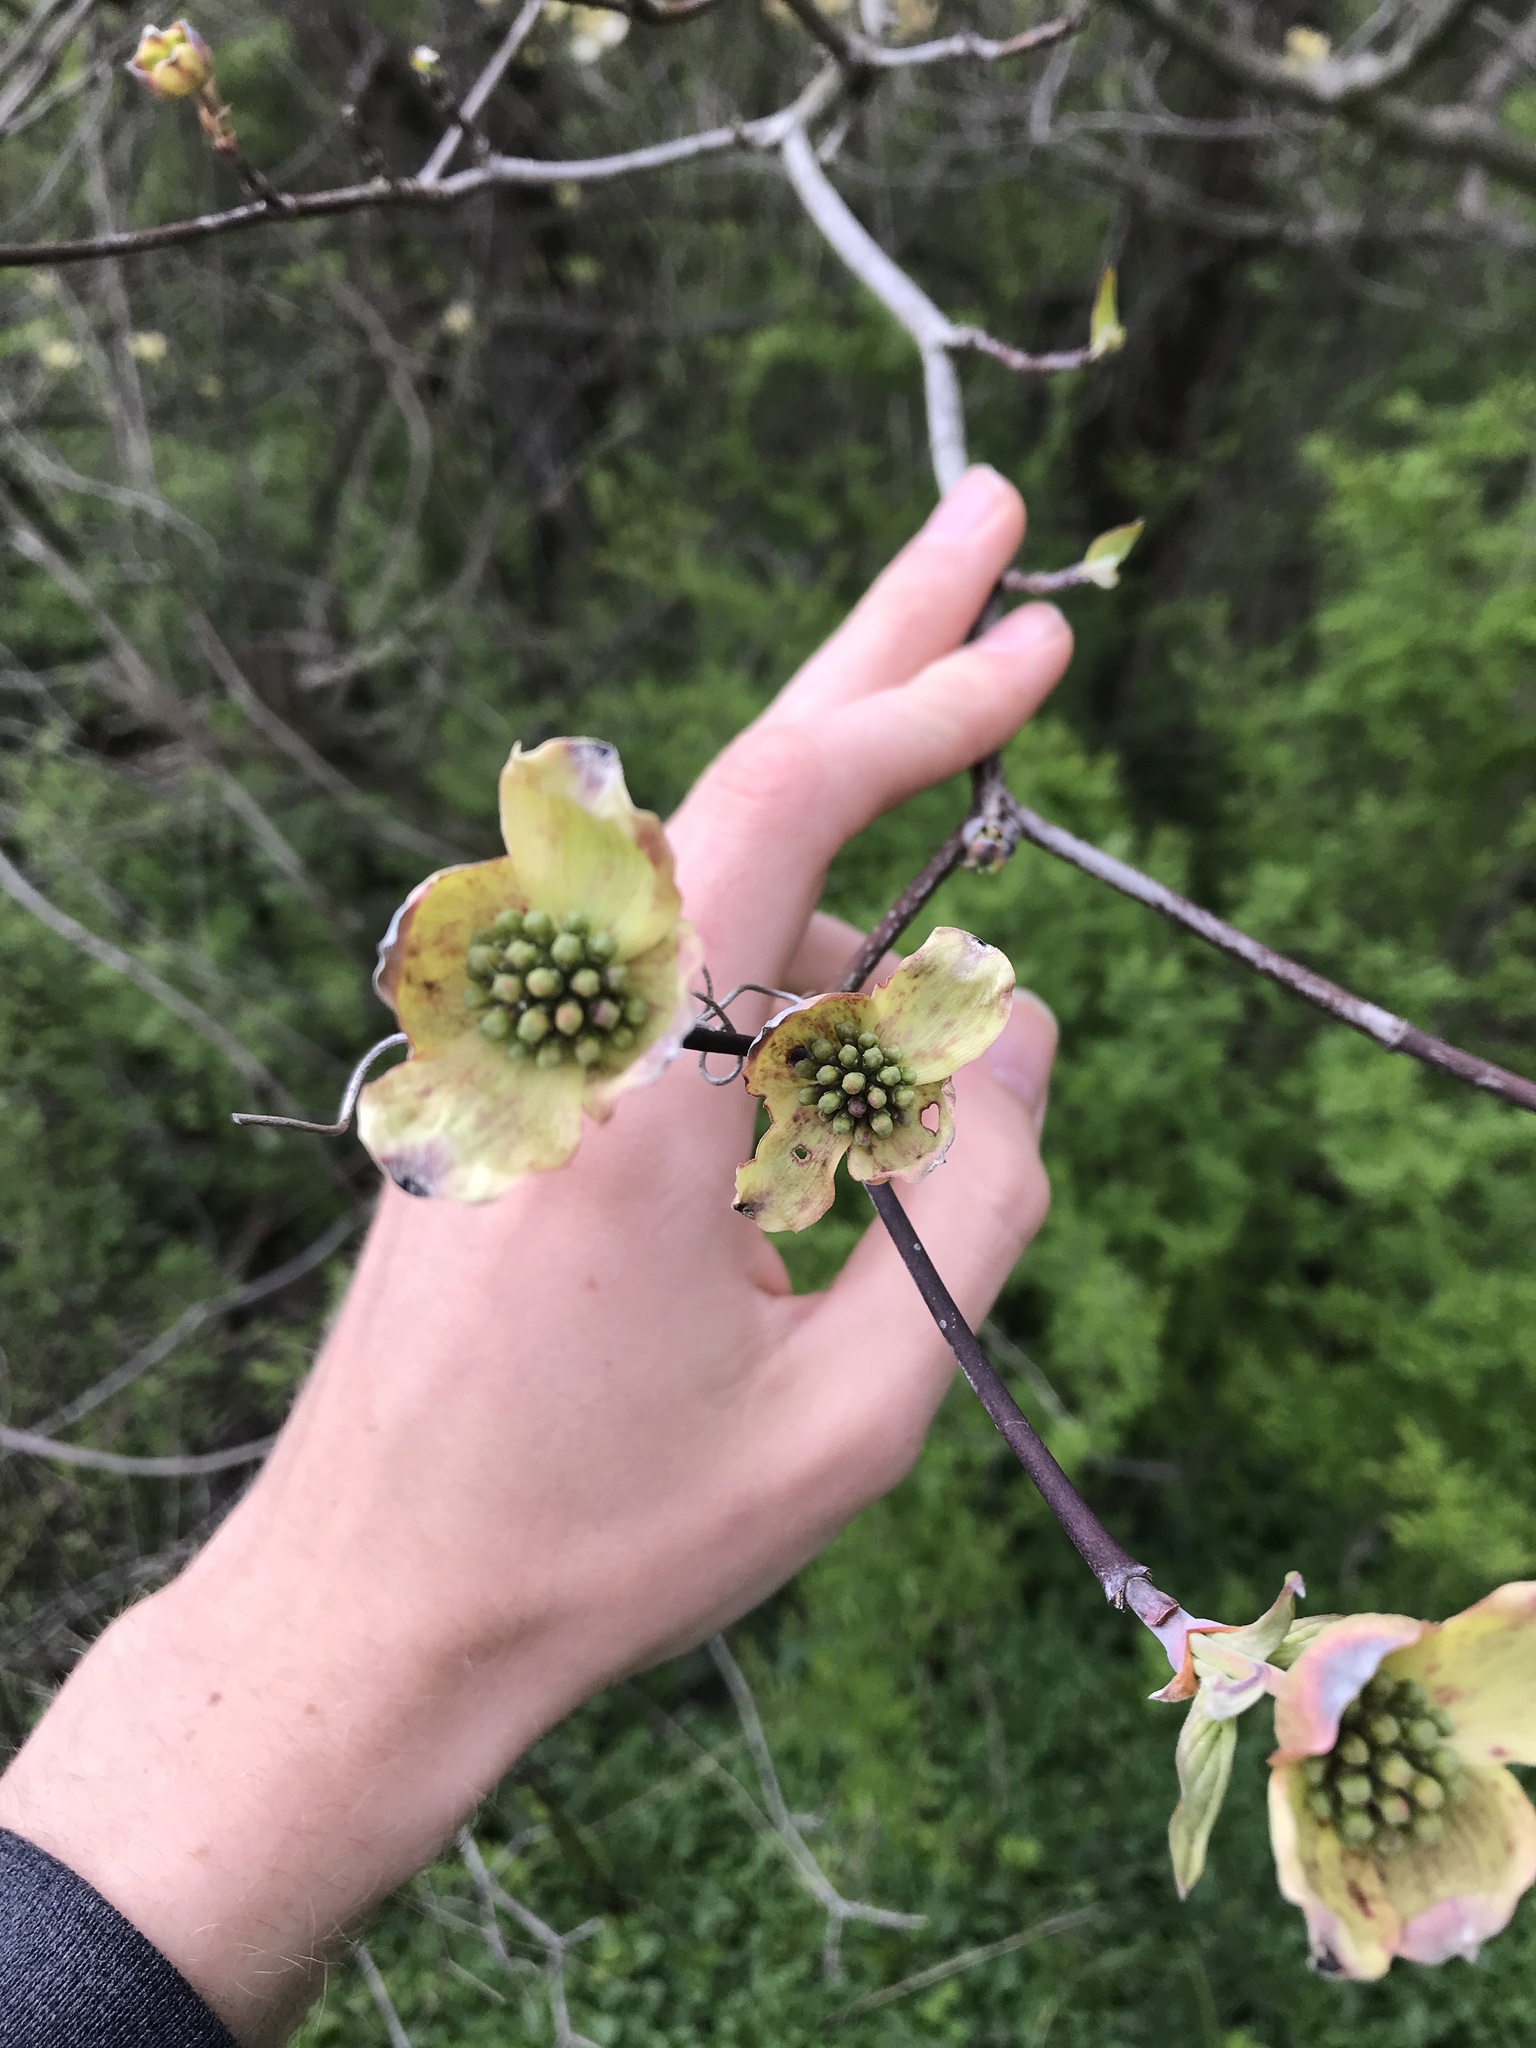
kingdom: Plantae
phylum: Tracheophyta
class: Magnoliopsida
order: Cornales
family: Cornaceae
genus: Cornus
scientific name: Cornus florida
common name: Flowering dogwood
